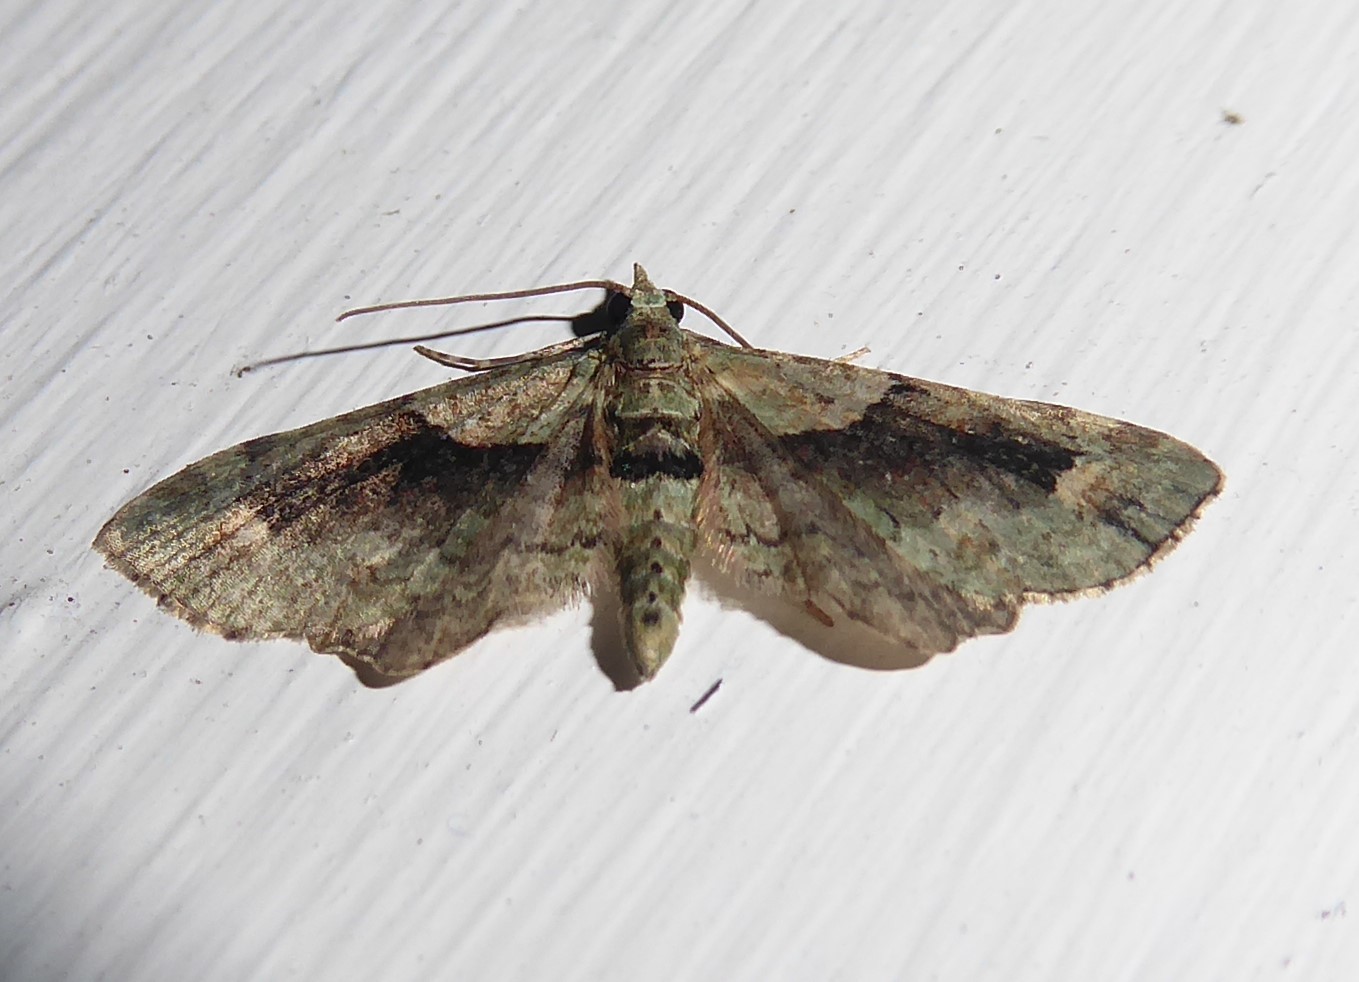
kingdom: Animalia
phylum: Arthropoda
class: Insecta
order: Lepidoptera
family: Geometridae
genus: Pasiphila
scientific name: Pasiphila suffusa
